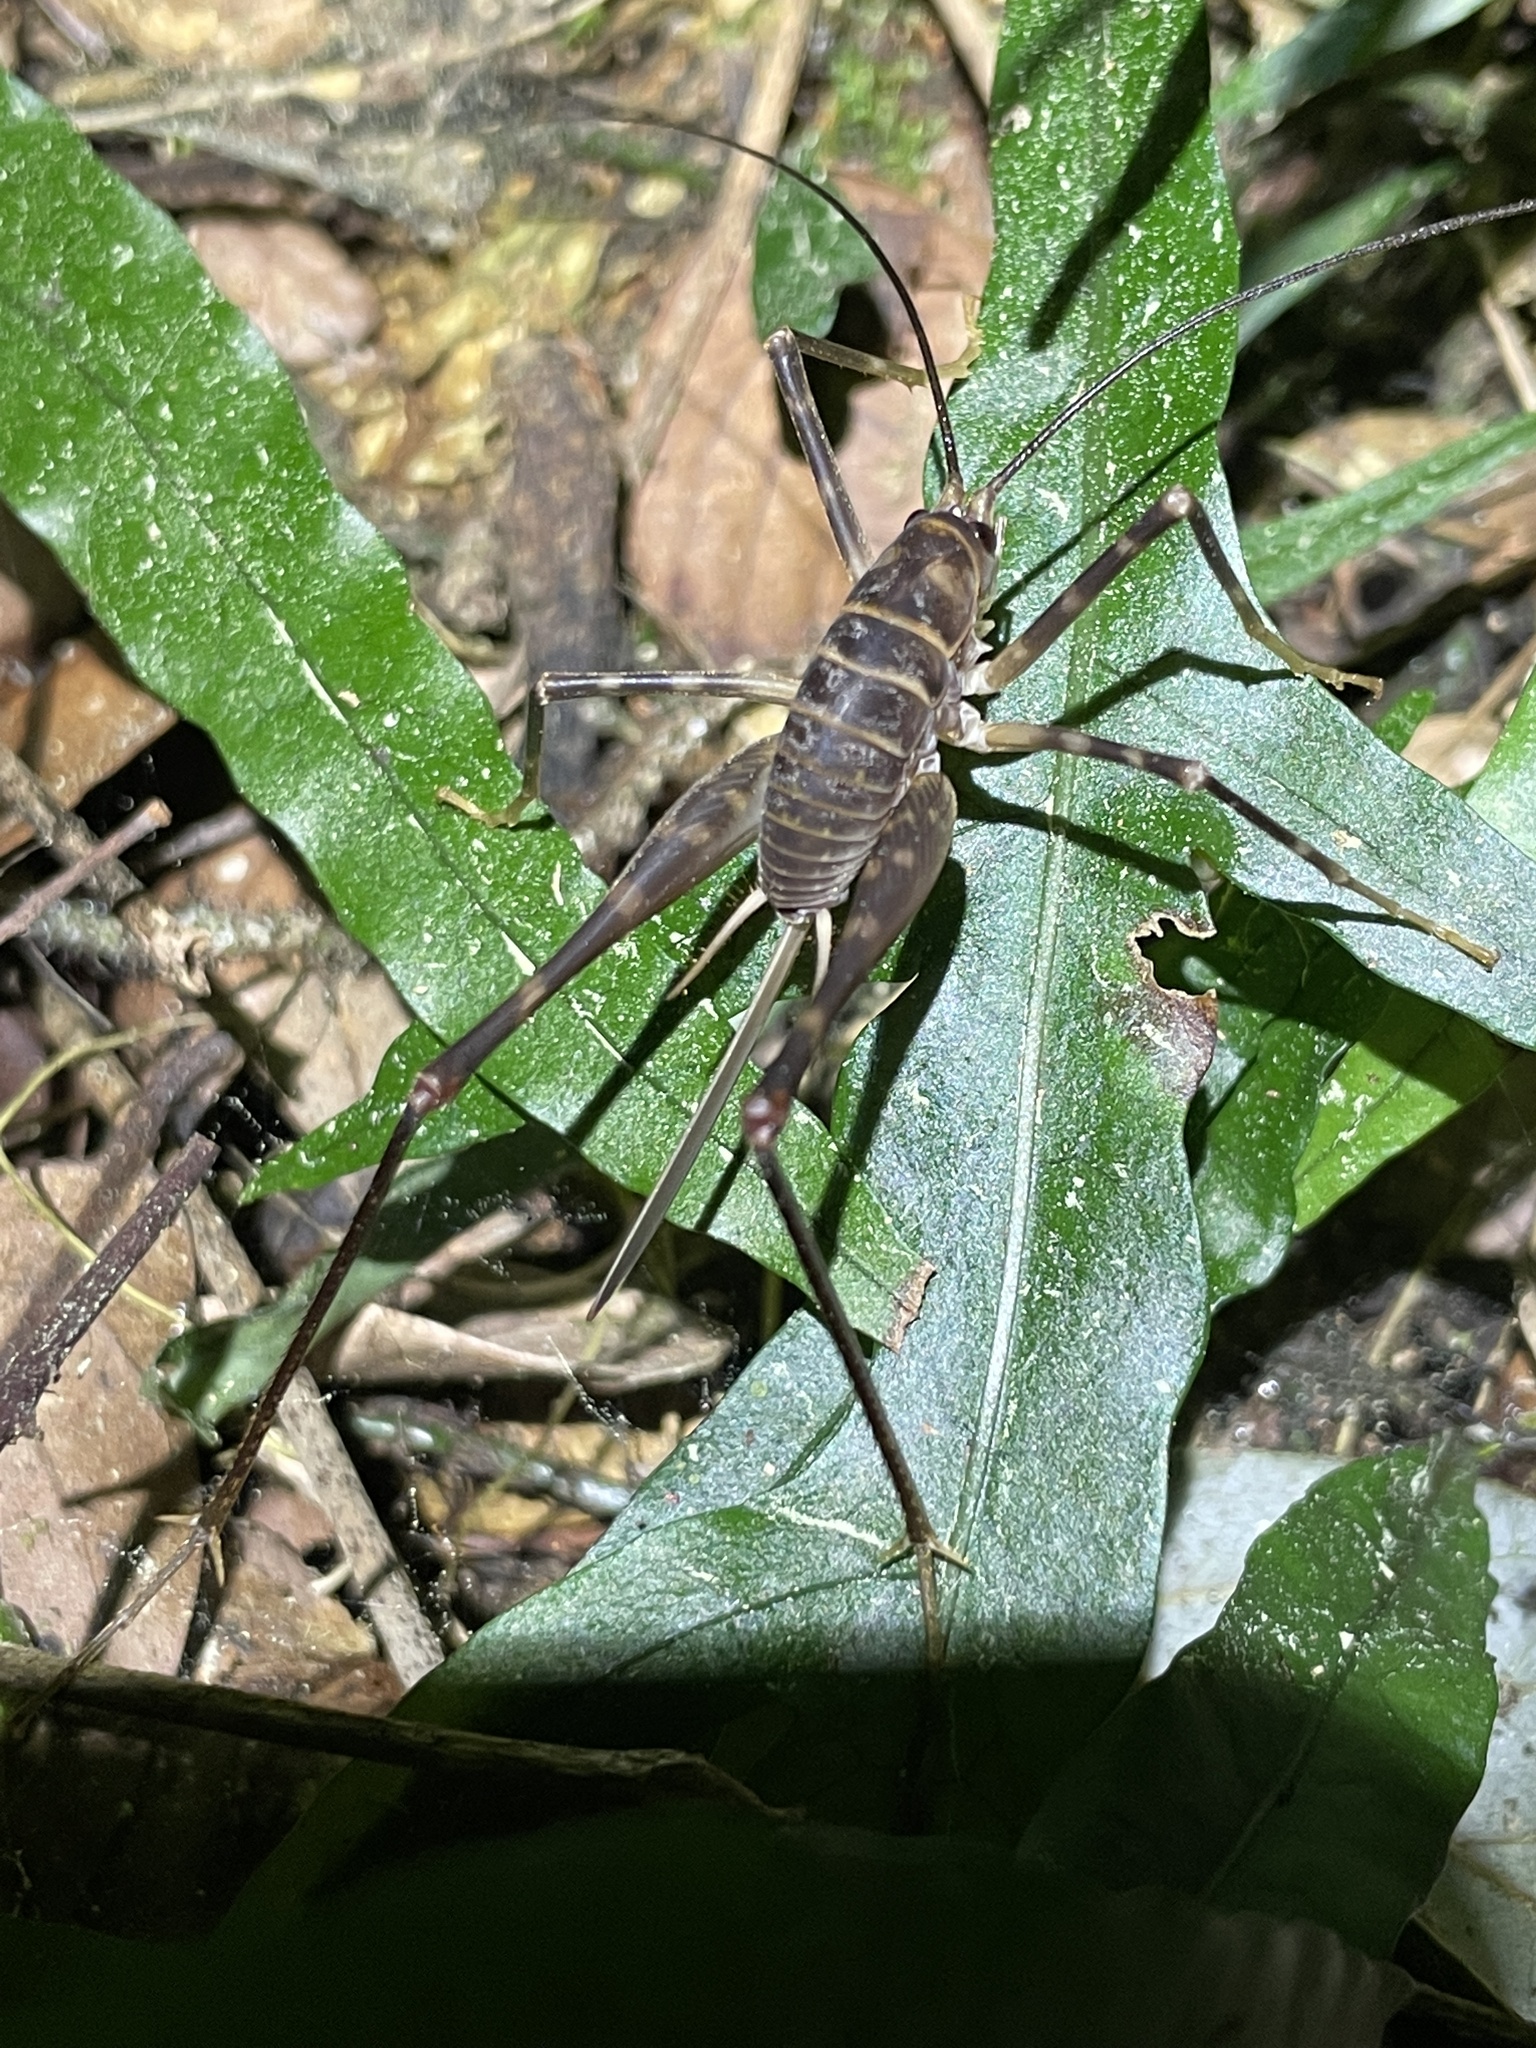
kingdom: Animalia
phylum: Arthropoda
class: Insecta
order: Orthoptera
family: Rhaphidophoridae
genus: Pachyrhamma
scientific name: Pachyrhamma acanthocera
